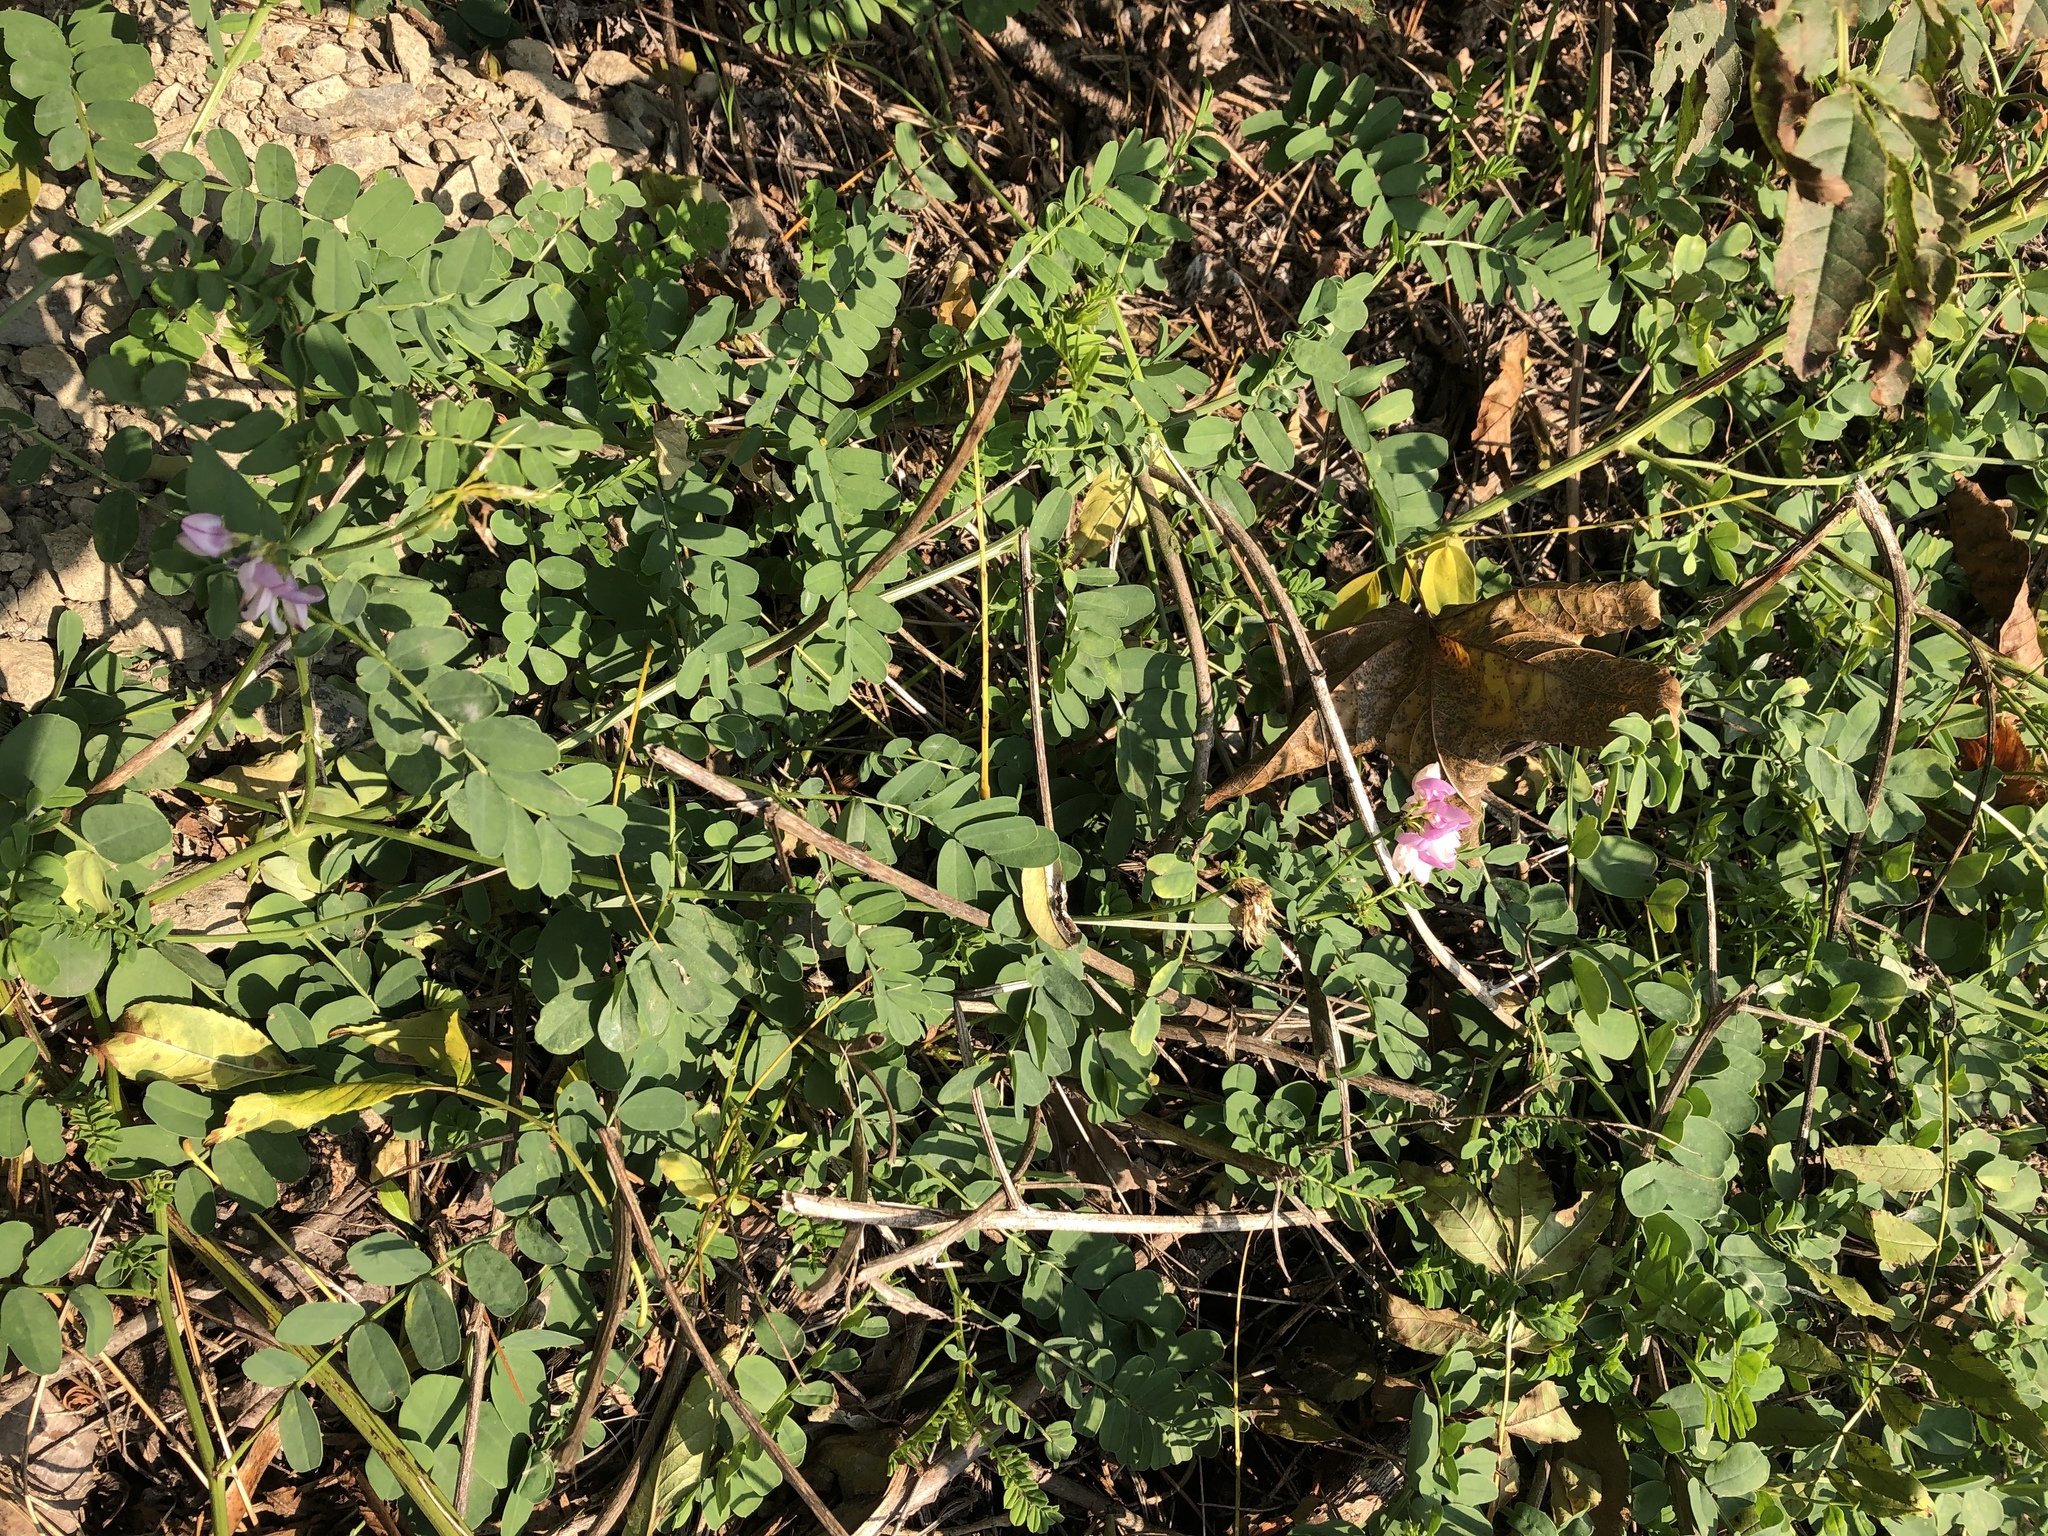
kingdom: Plantae
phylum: Tracheophyta
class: Magnoliopsida
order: Fabales
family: Fabaceae
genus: Coronilla
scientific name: Coronilla varia
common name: Crownvetch
